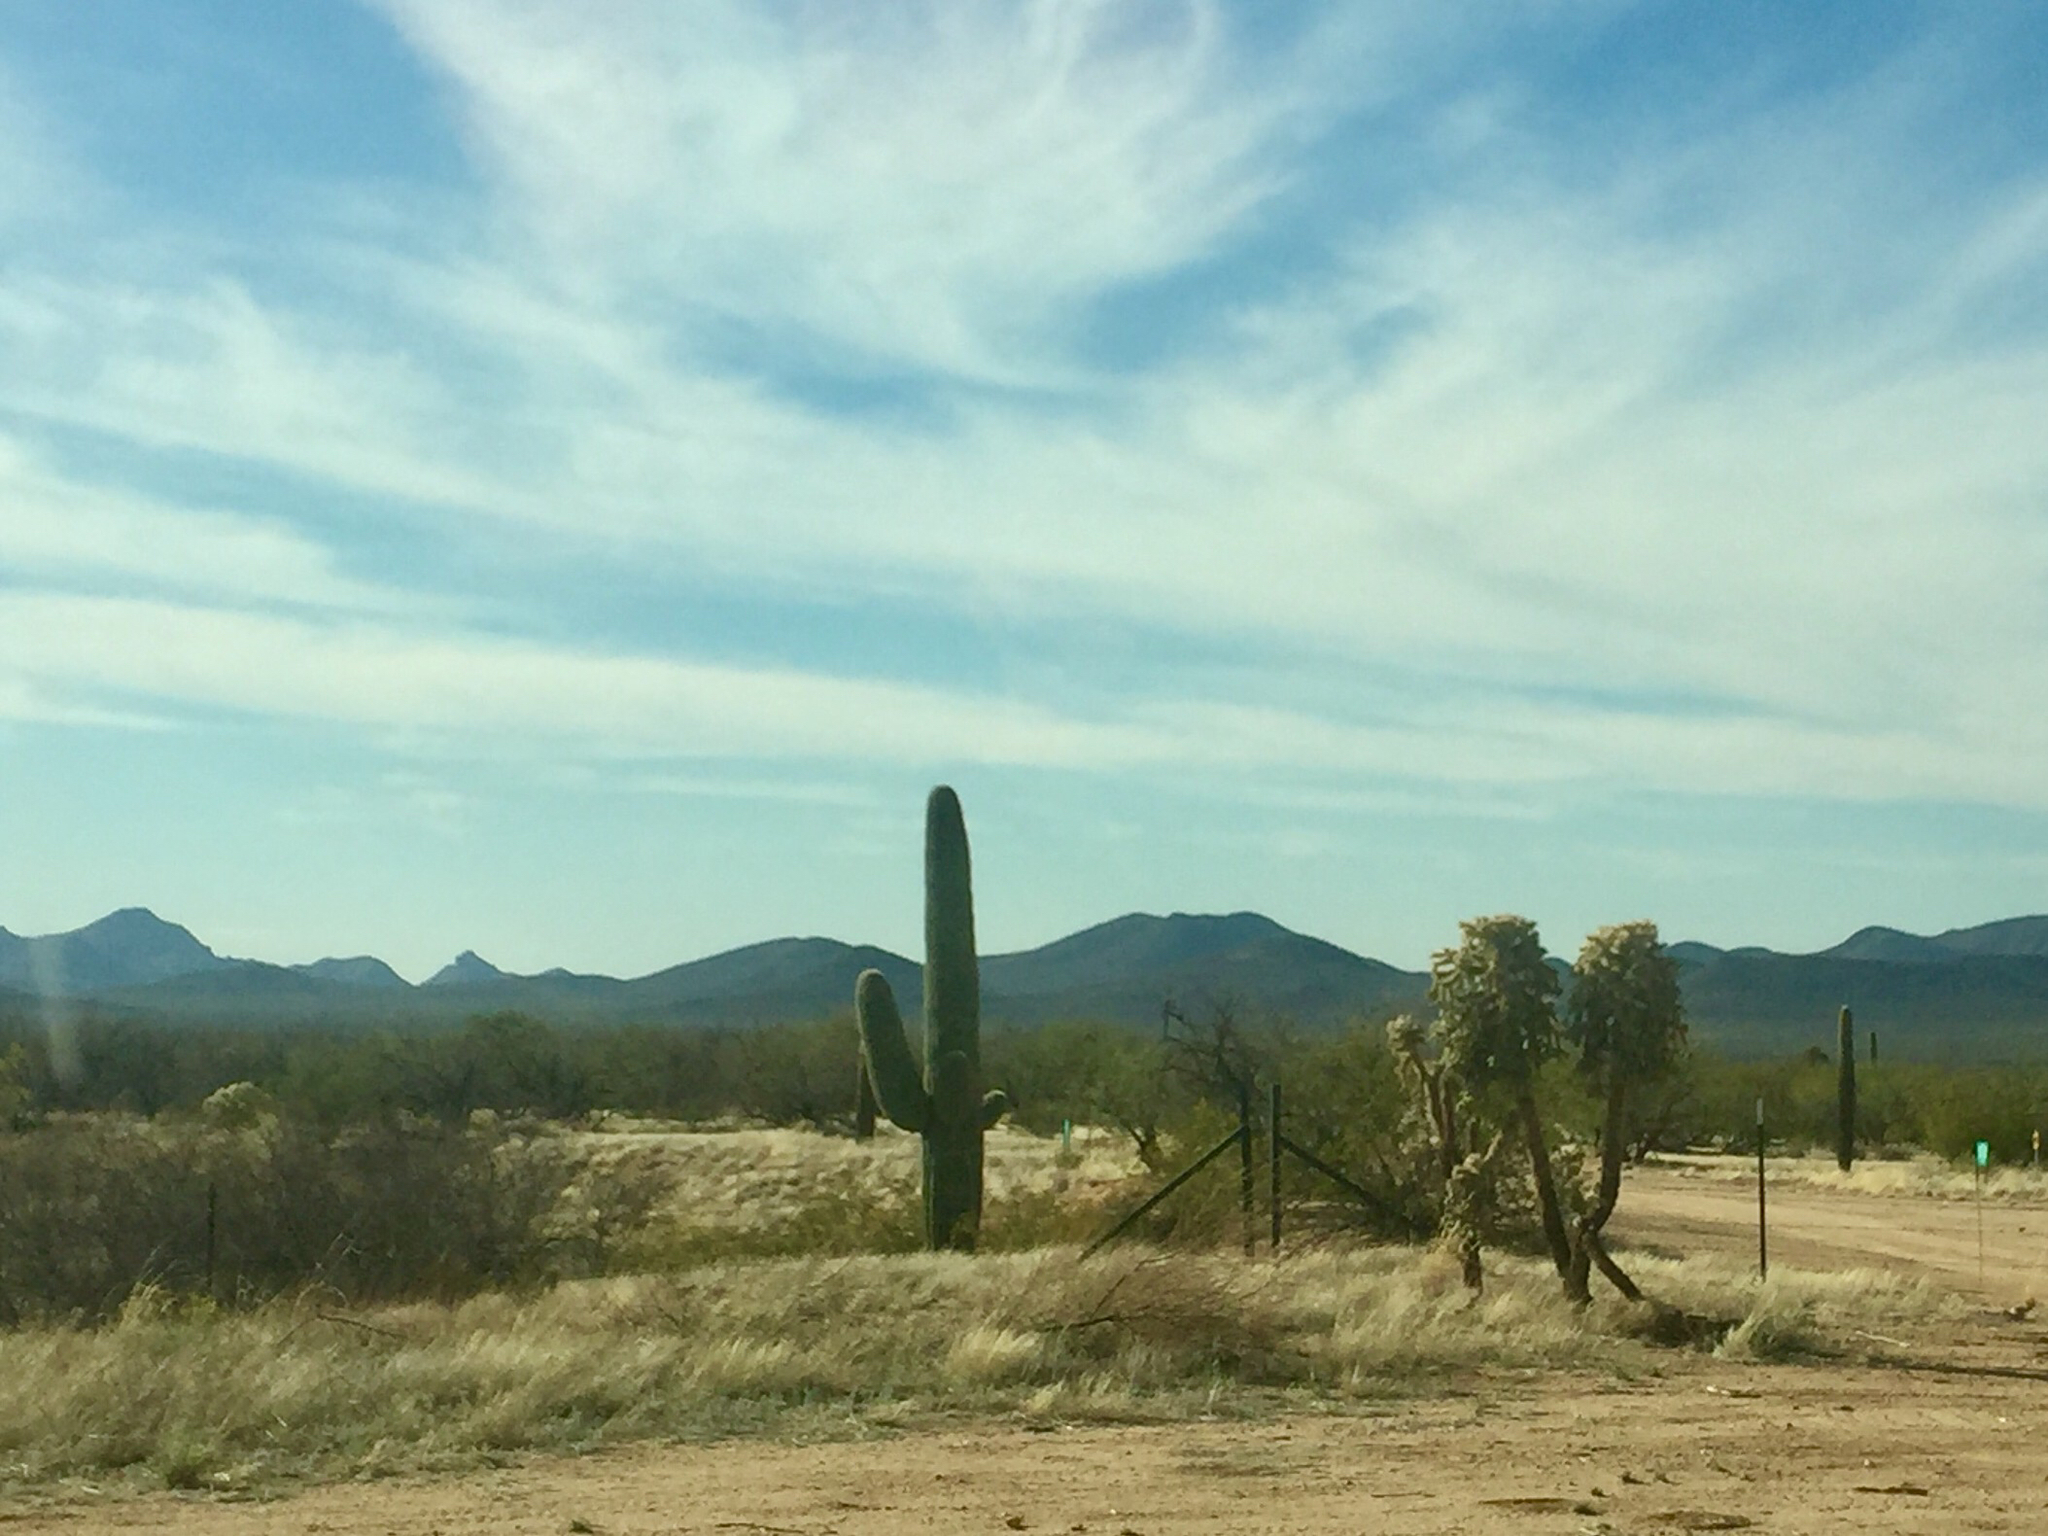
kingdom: Plantae
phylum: Tracheophyta
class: Magnoliopsida
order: Caryophyllales
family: Cactaceae
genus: Carnegiea
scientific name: Carnegiea gigantea
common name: Saguaro
